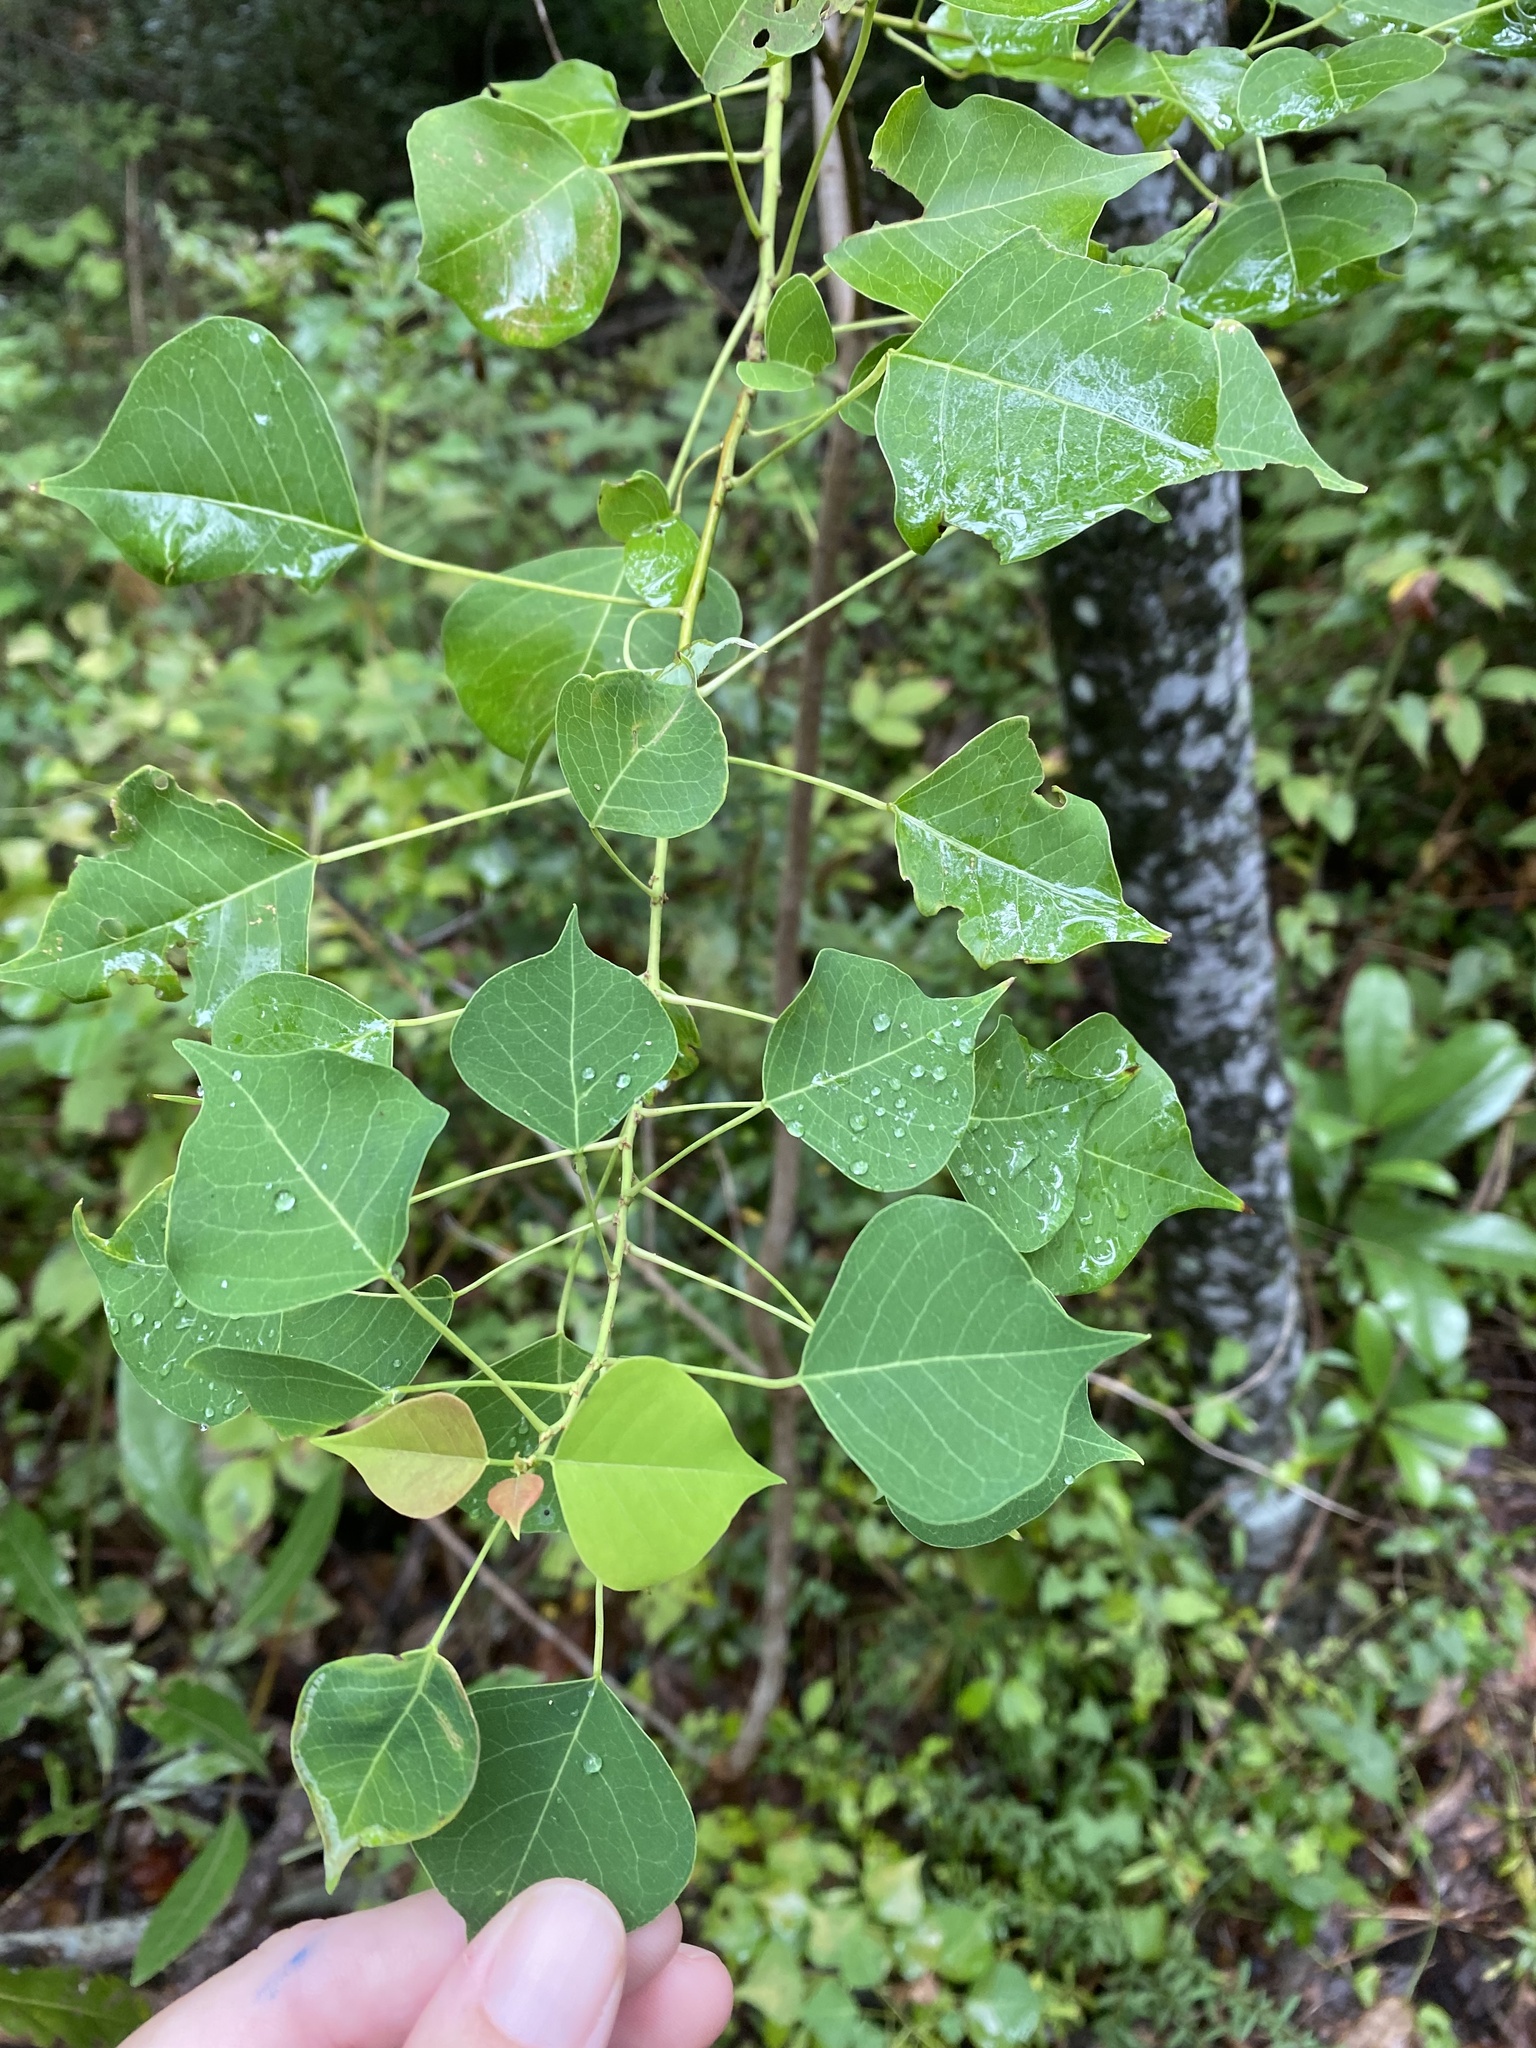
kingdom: Plantae
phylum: Tracheophyta
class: Magnoliopsida
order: Malpighiales
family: Euphorbiaceae
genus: Triadica
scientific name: Triadica sebifera
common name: Chinese tallow
